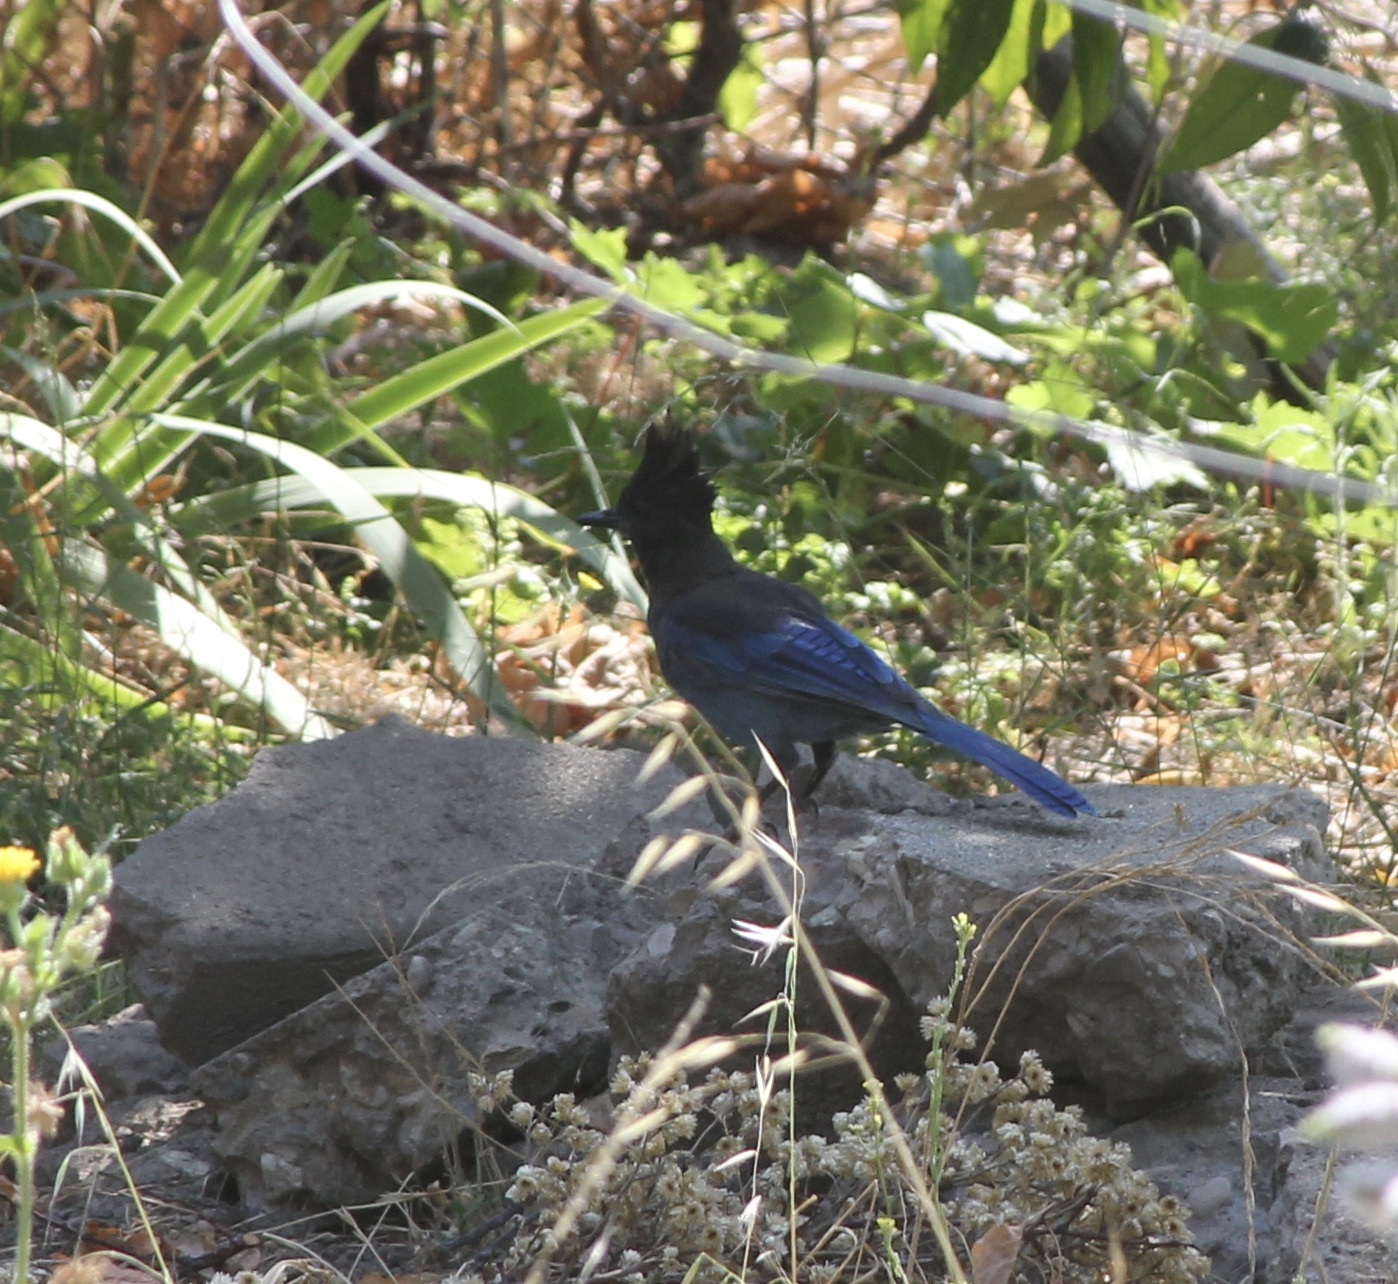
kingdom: Animalia
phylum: Chordata
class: Aves
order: Passeriformes
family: Corvidae
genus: Cyanocitta
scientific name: Cyanocitta stelleri
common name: Steller's jay
